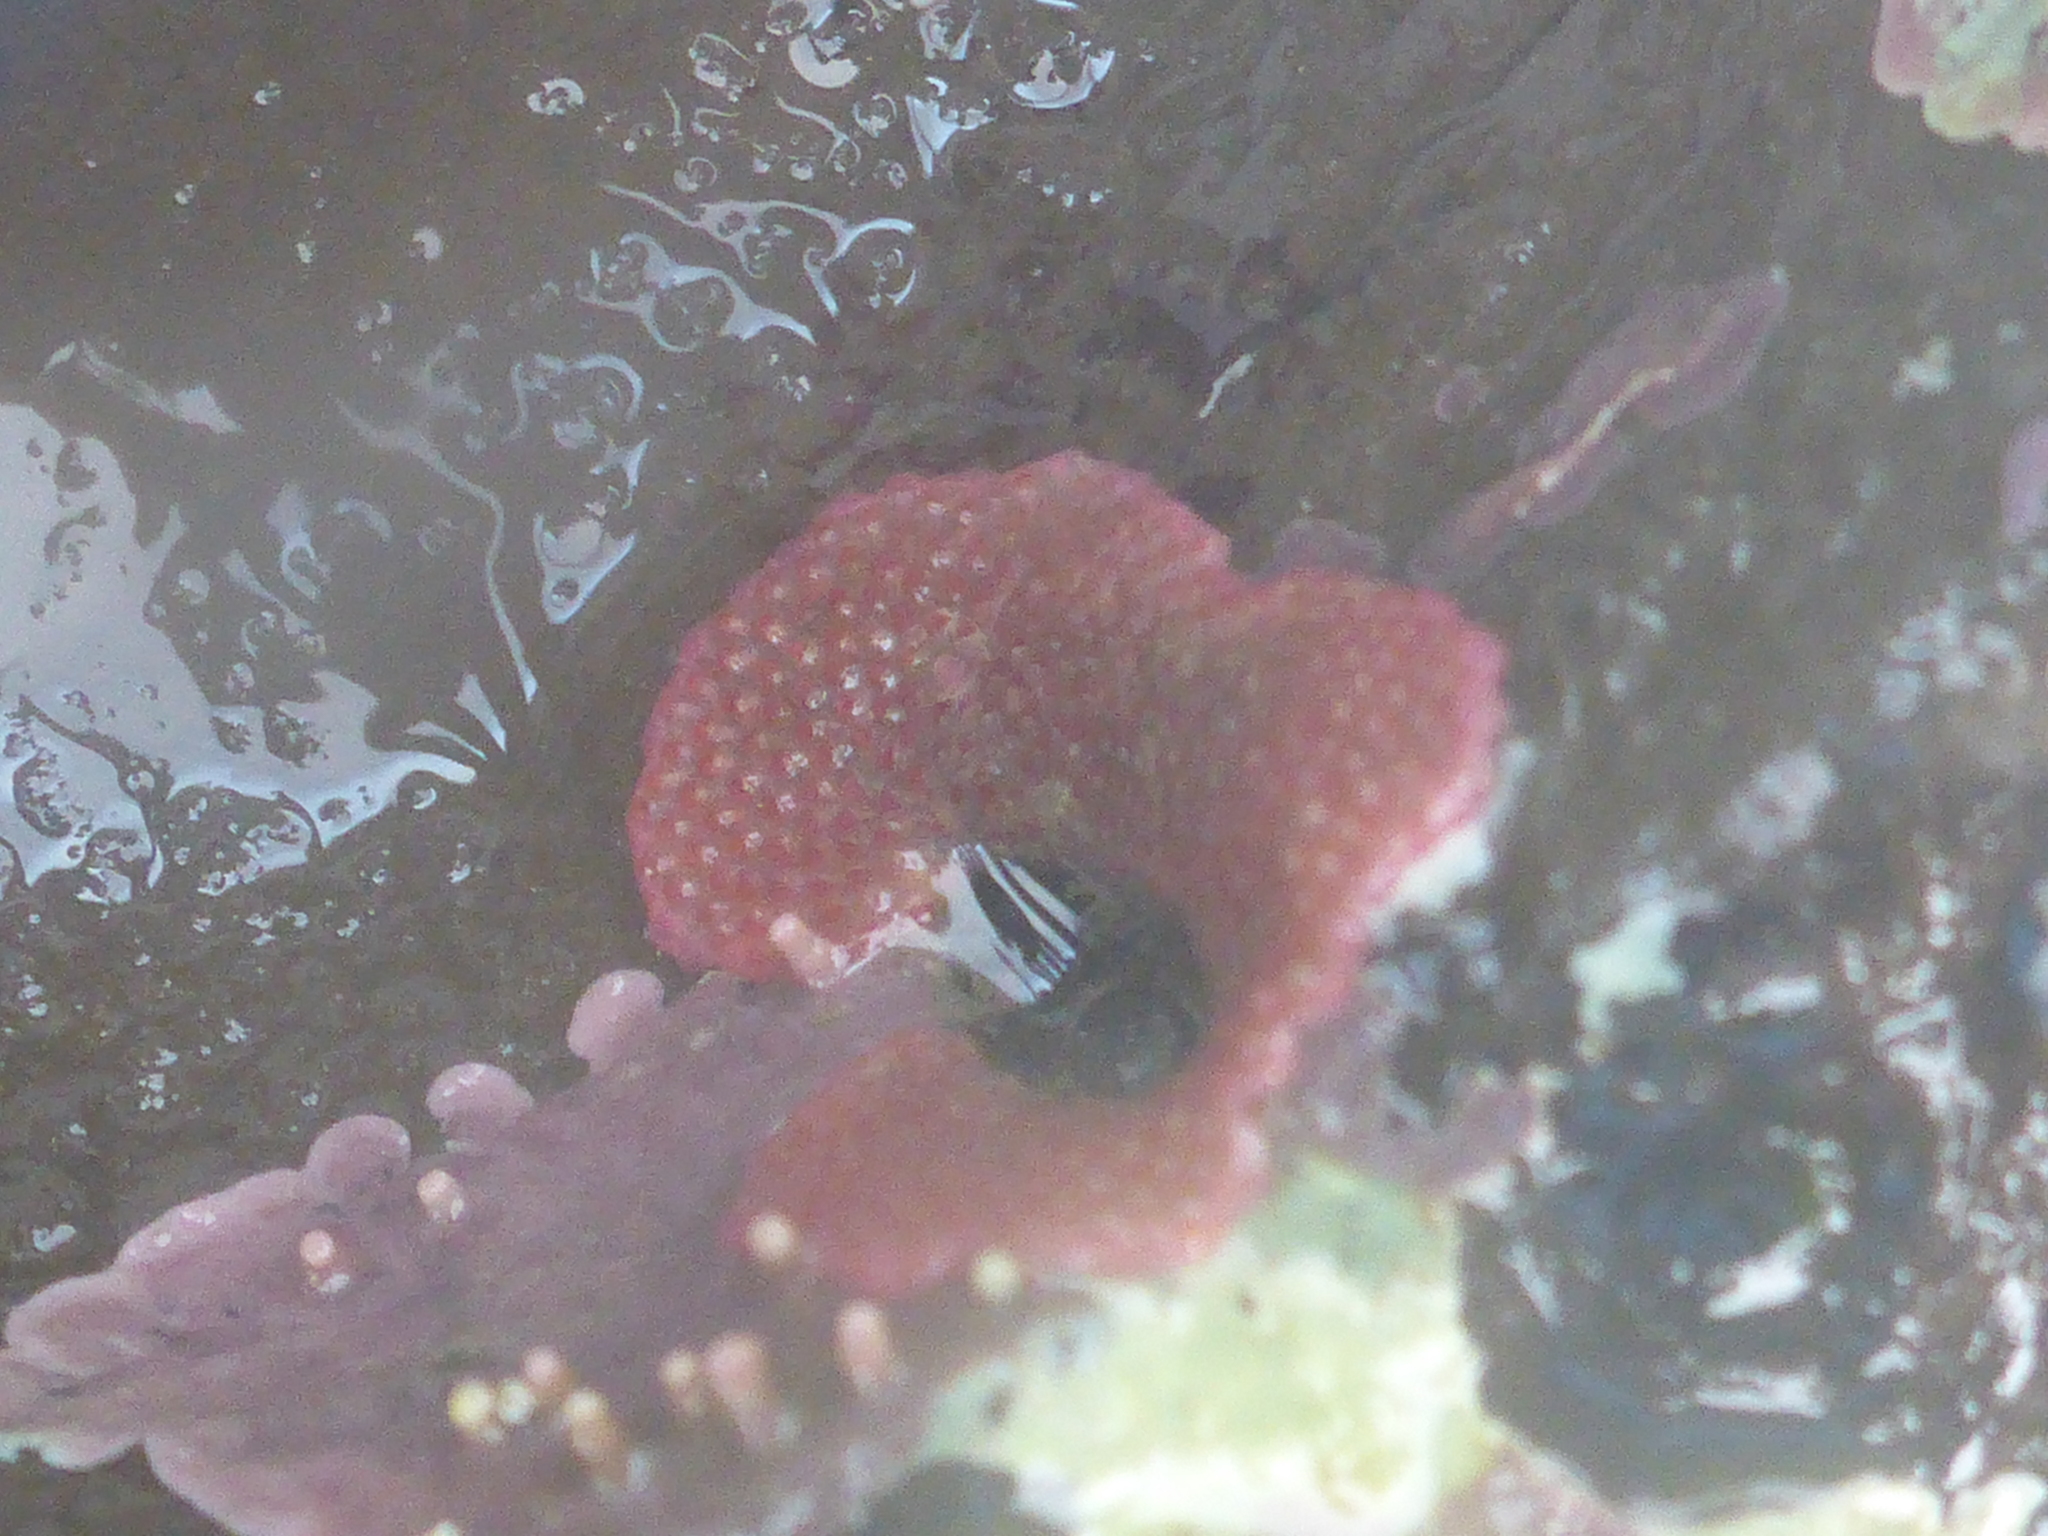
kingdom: Animalia
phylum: Bryozoa
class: Gymnolaemata
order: Cheilostomatida
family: Eurystomellidae
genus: Integripelta
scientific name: Integripelta bilabiata
